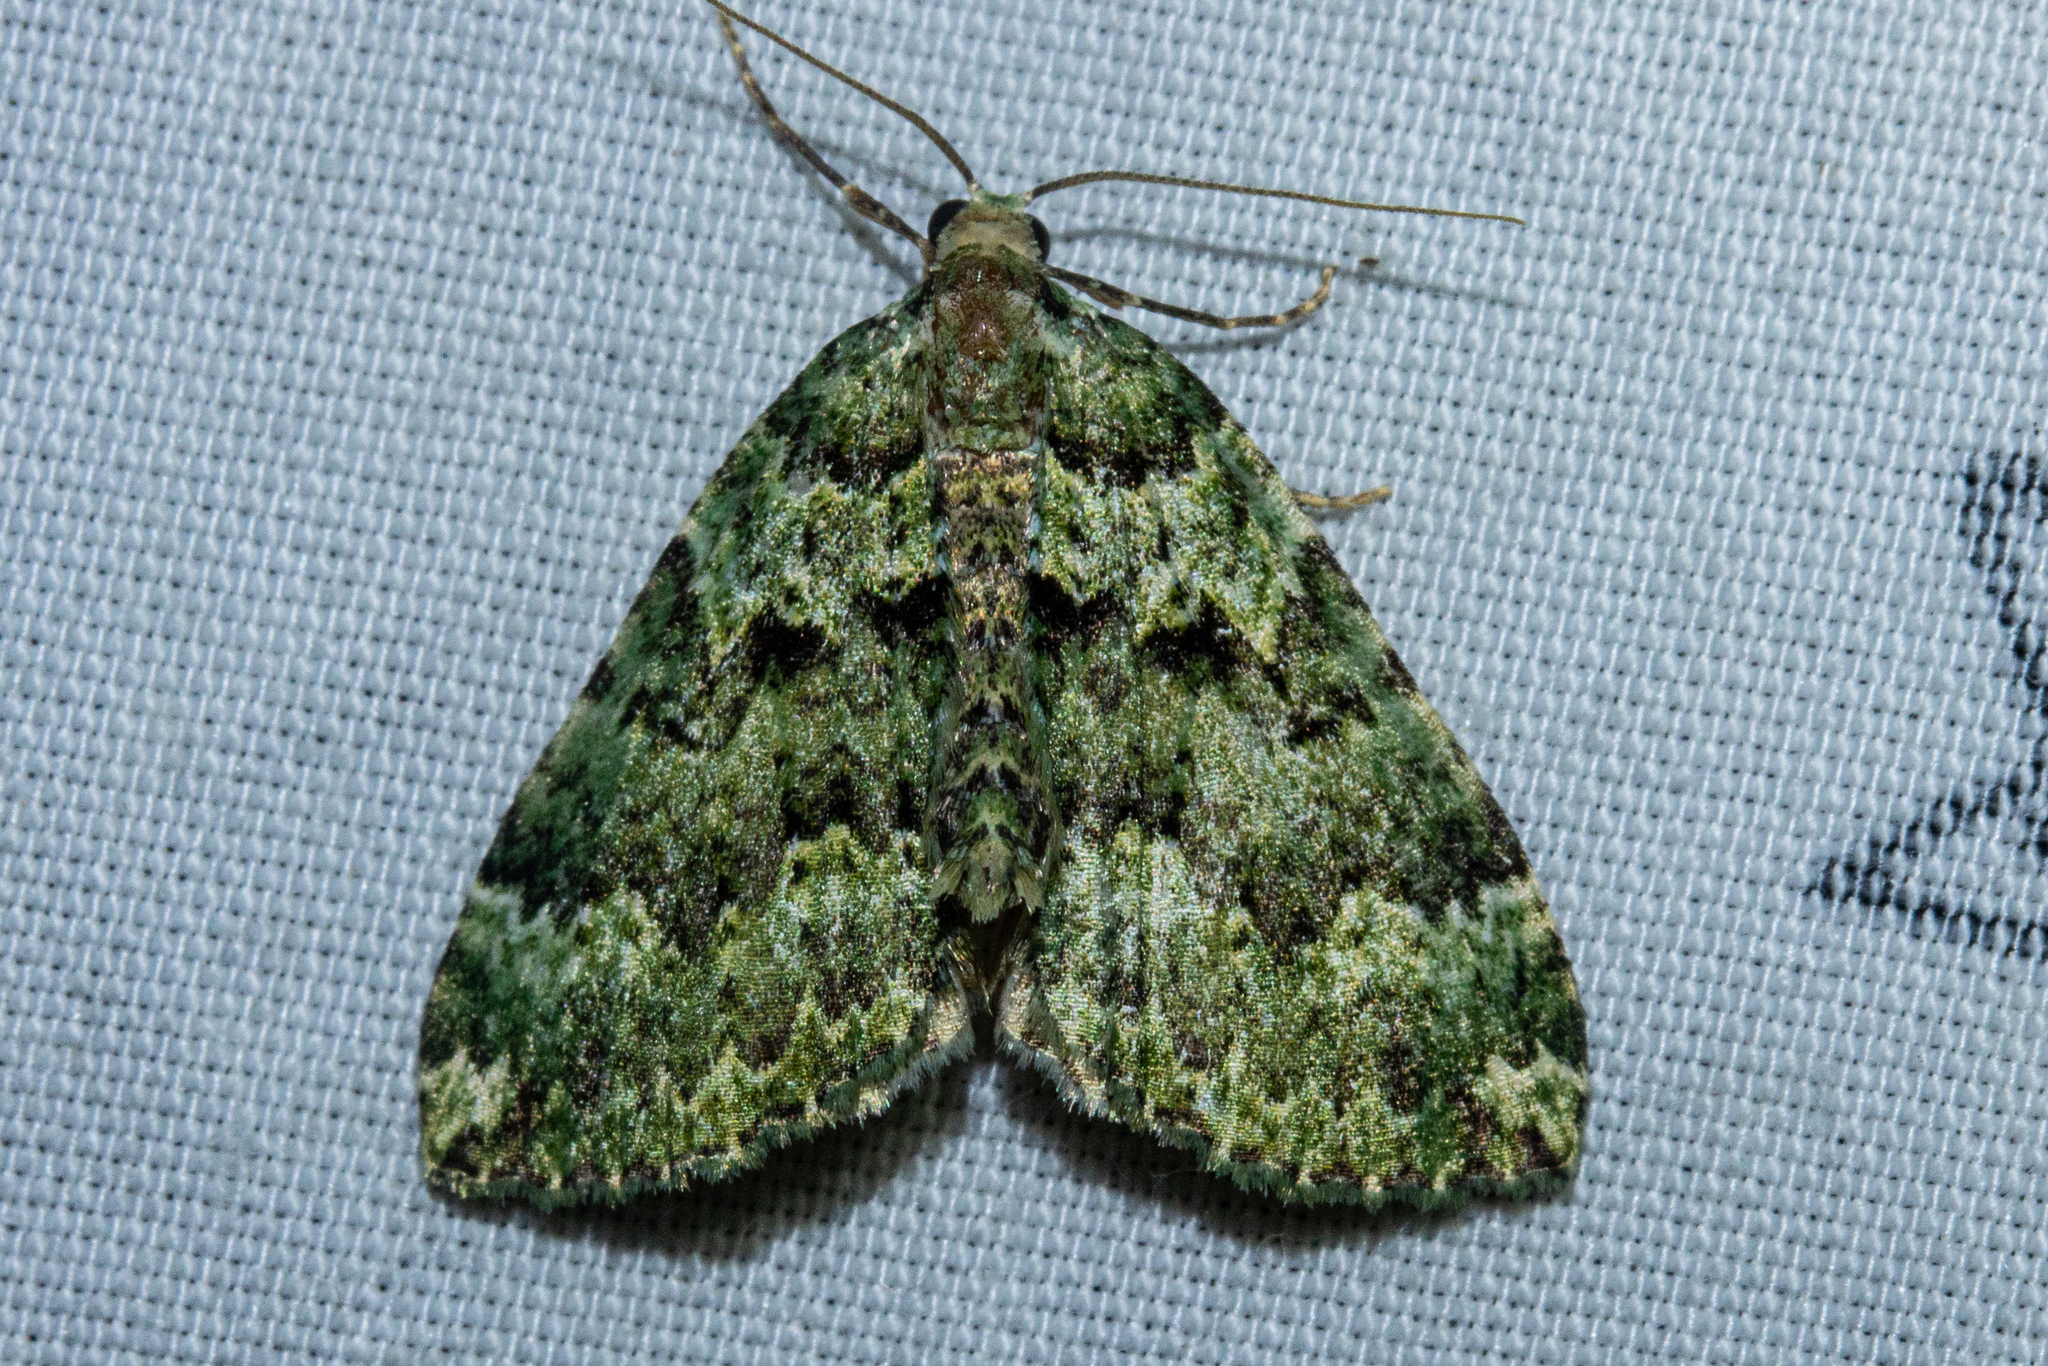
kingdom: Animalia
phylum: Arthropoda
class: Insecta
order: Lepidoptera
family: Geometridae
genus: Austrocidaria
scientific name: Austrocidaria callichlora
